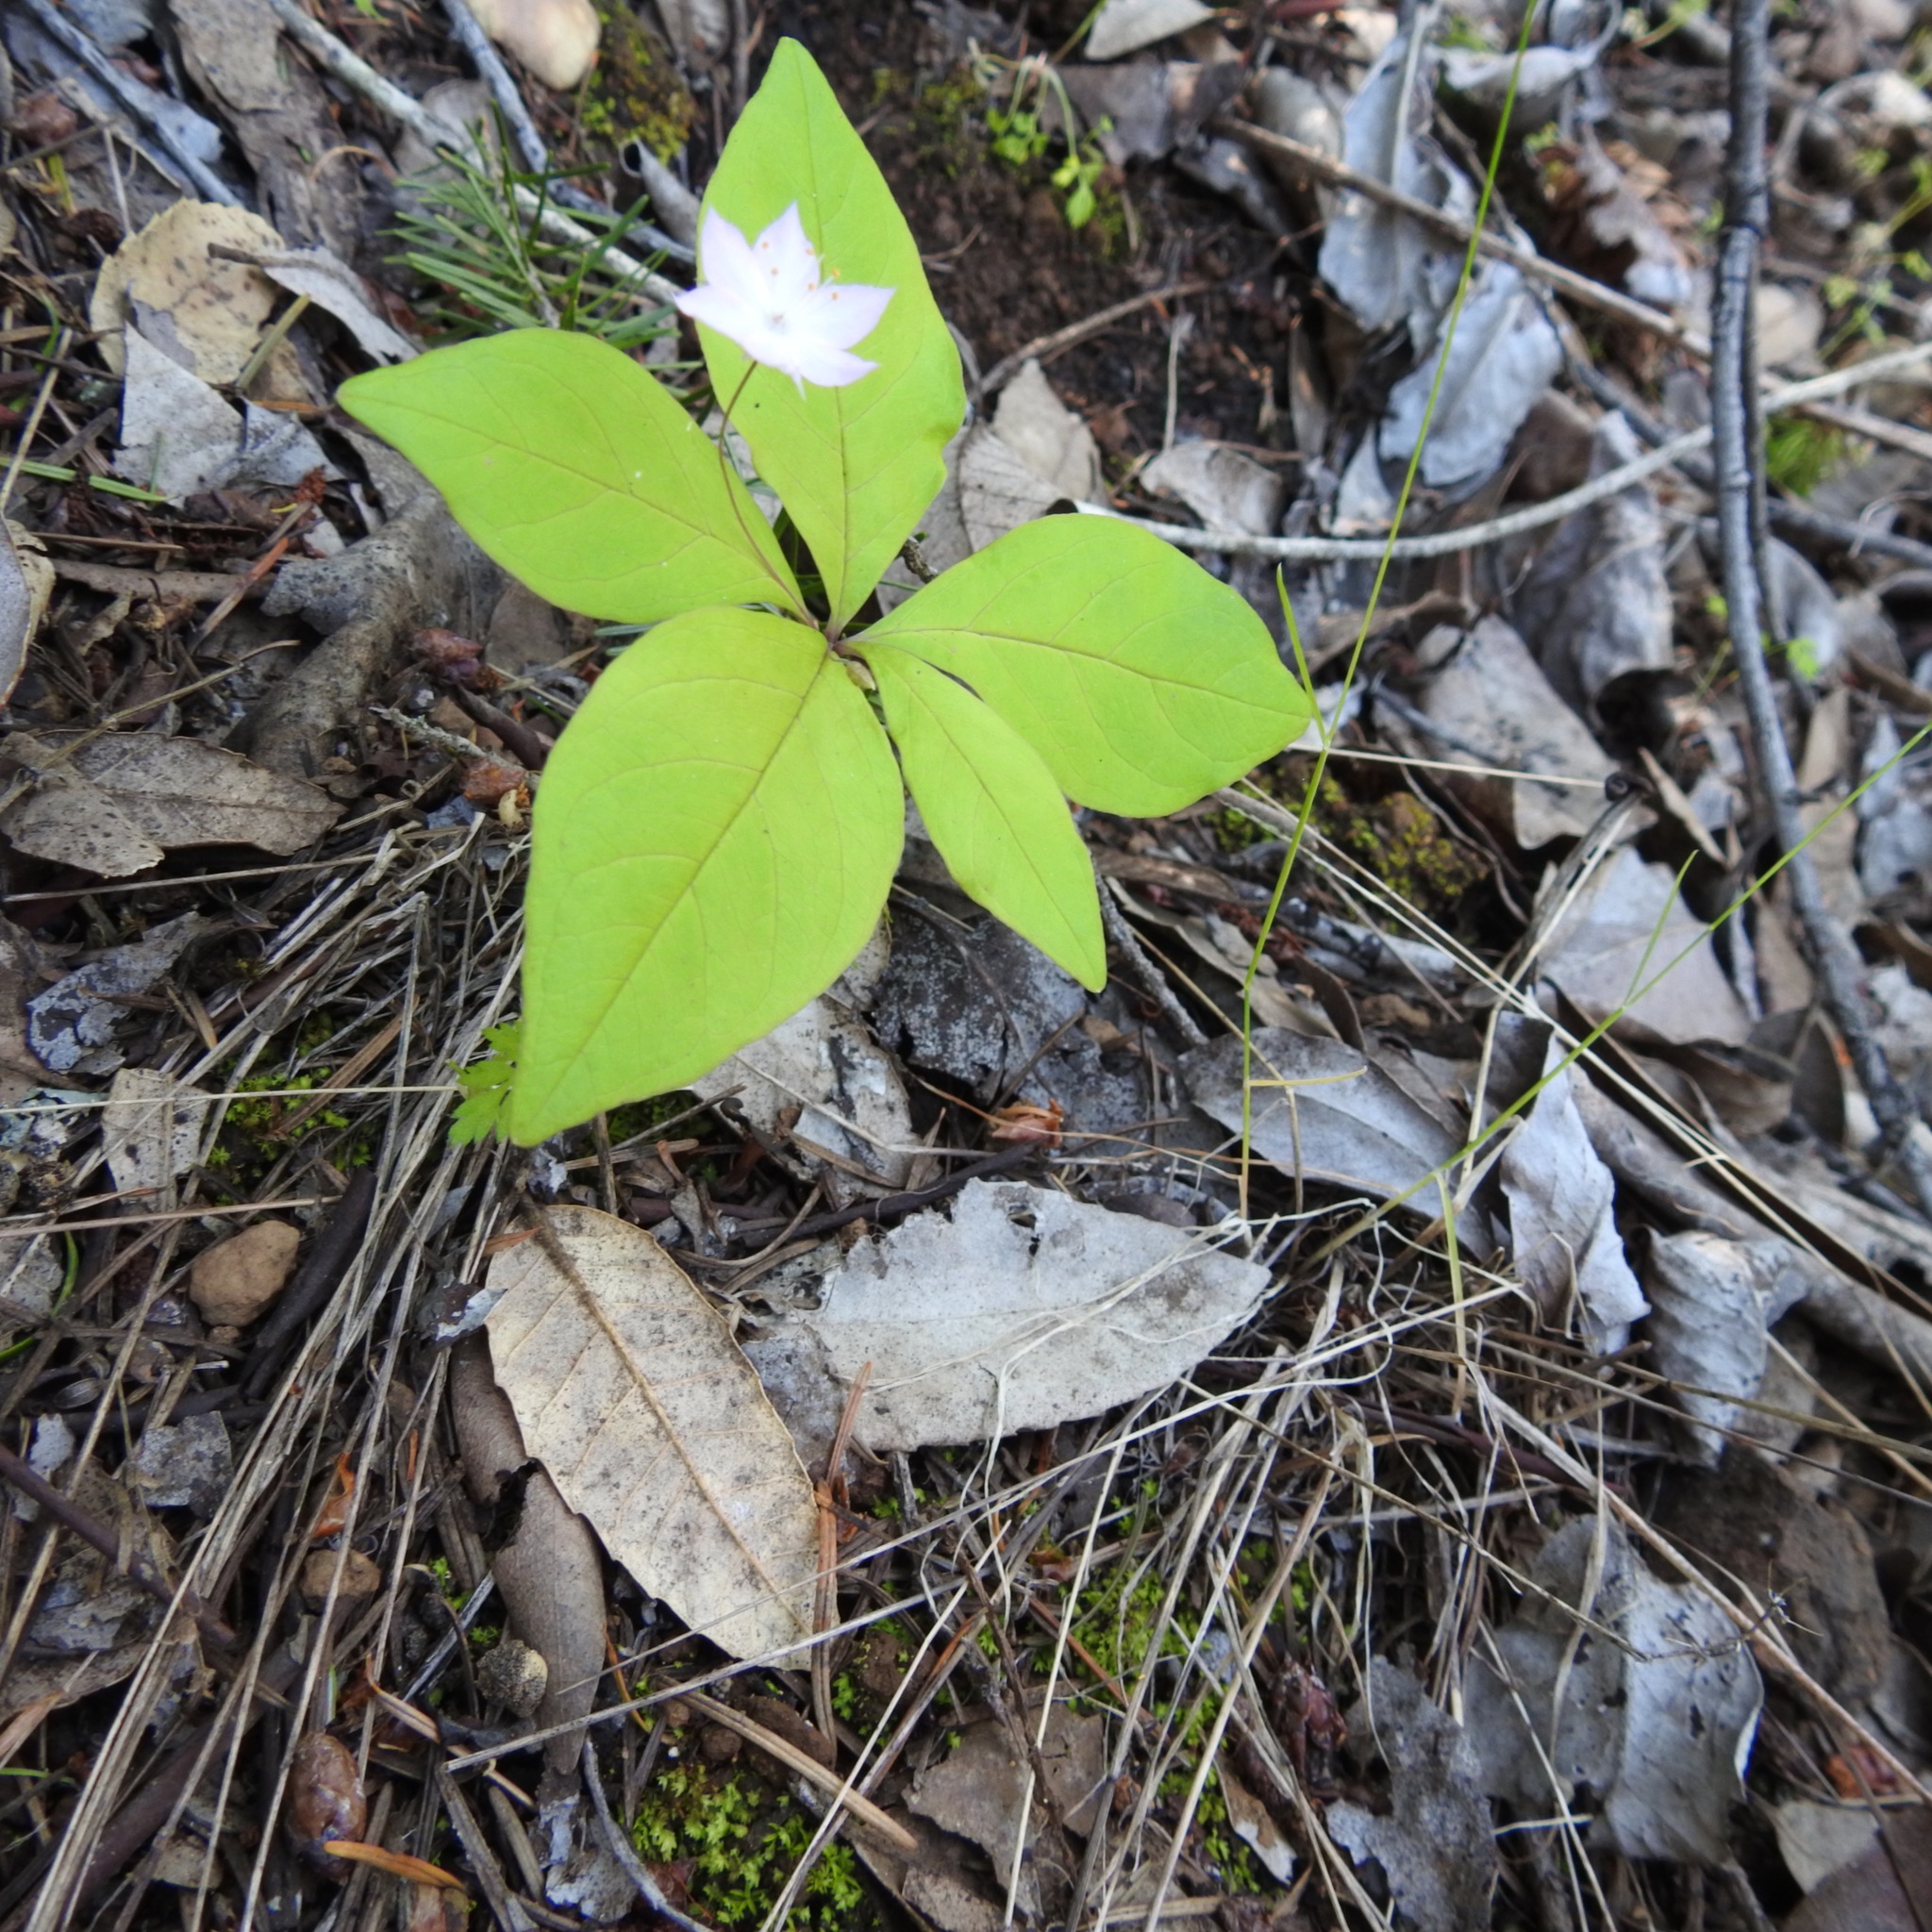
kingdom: Plantae
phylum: Tracheophyta
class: Magnoliopsida
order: Ericales
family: Primulaceae
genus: Lysimachia
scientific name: Lysimachia latifolia
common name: Pacific starflower
